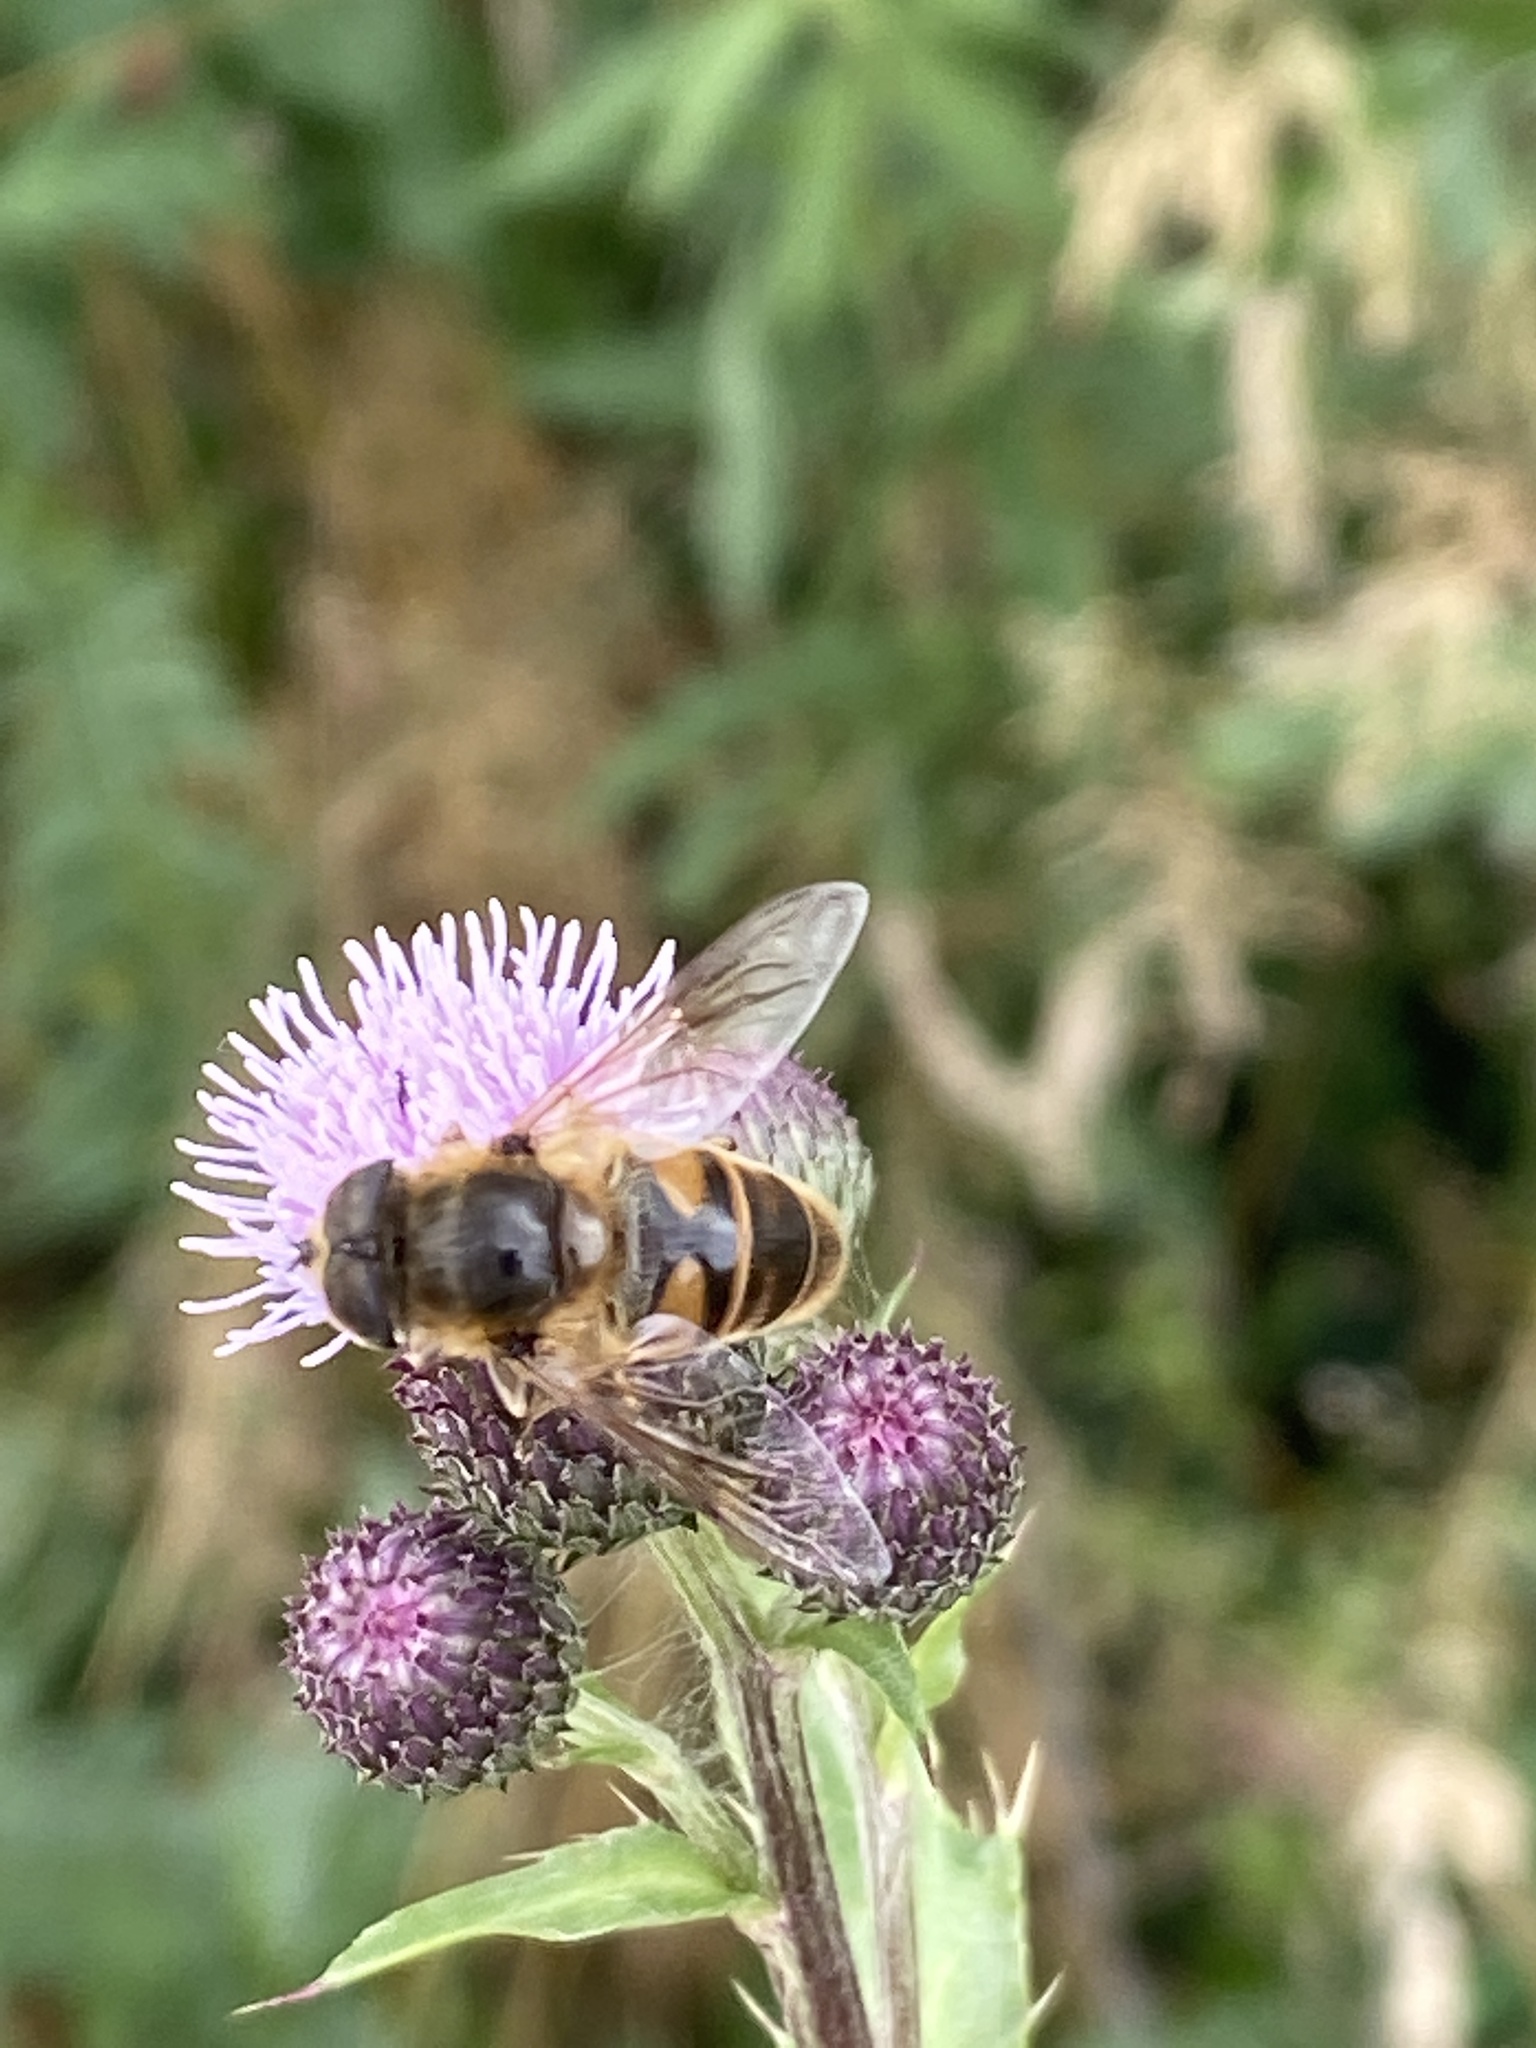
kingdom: Animalia
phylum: Arthropoda
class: Insecta
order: Diptera
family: Syrphidae
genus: Eristalis
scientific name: Eristalis tenax
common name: Drone fly
